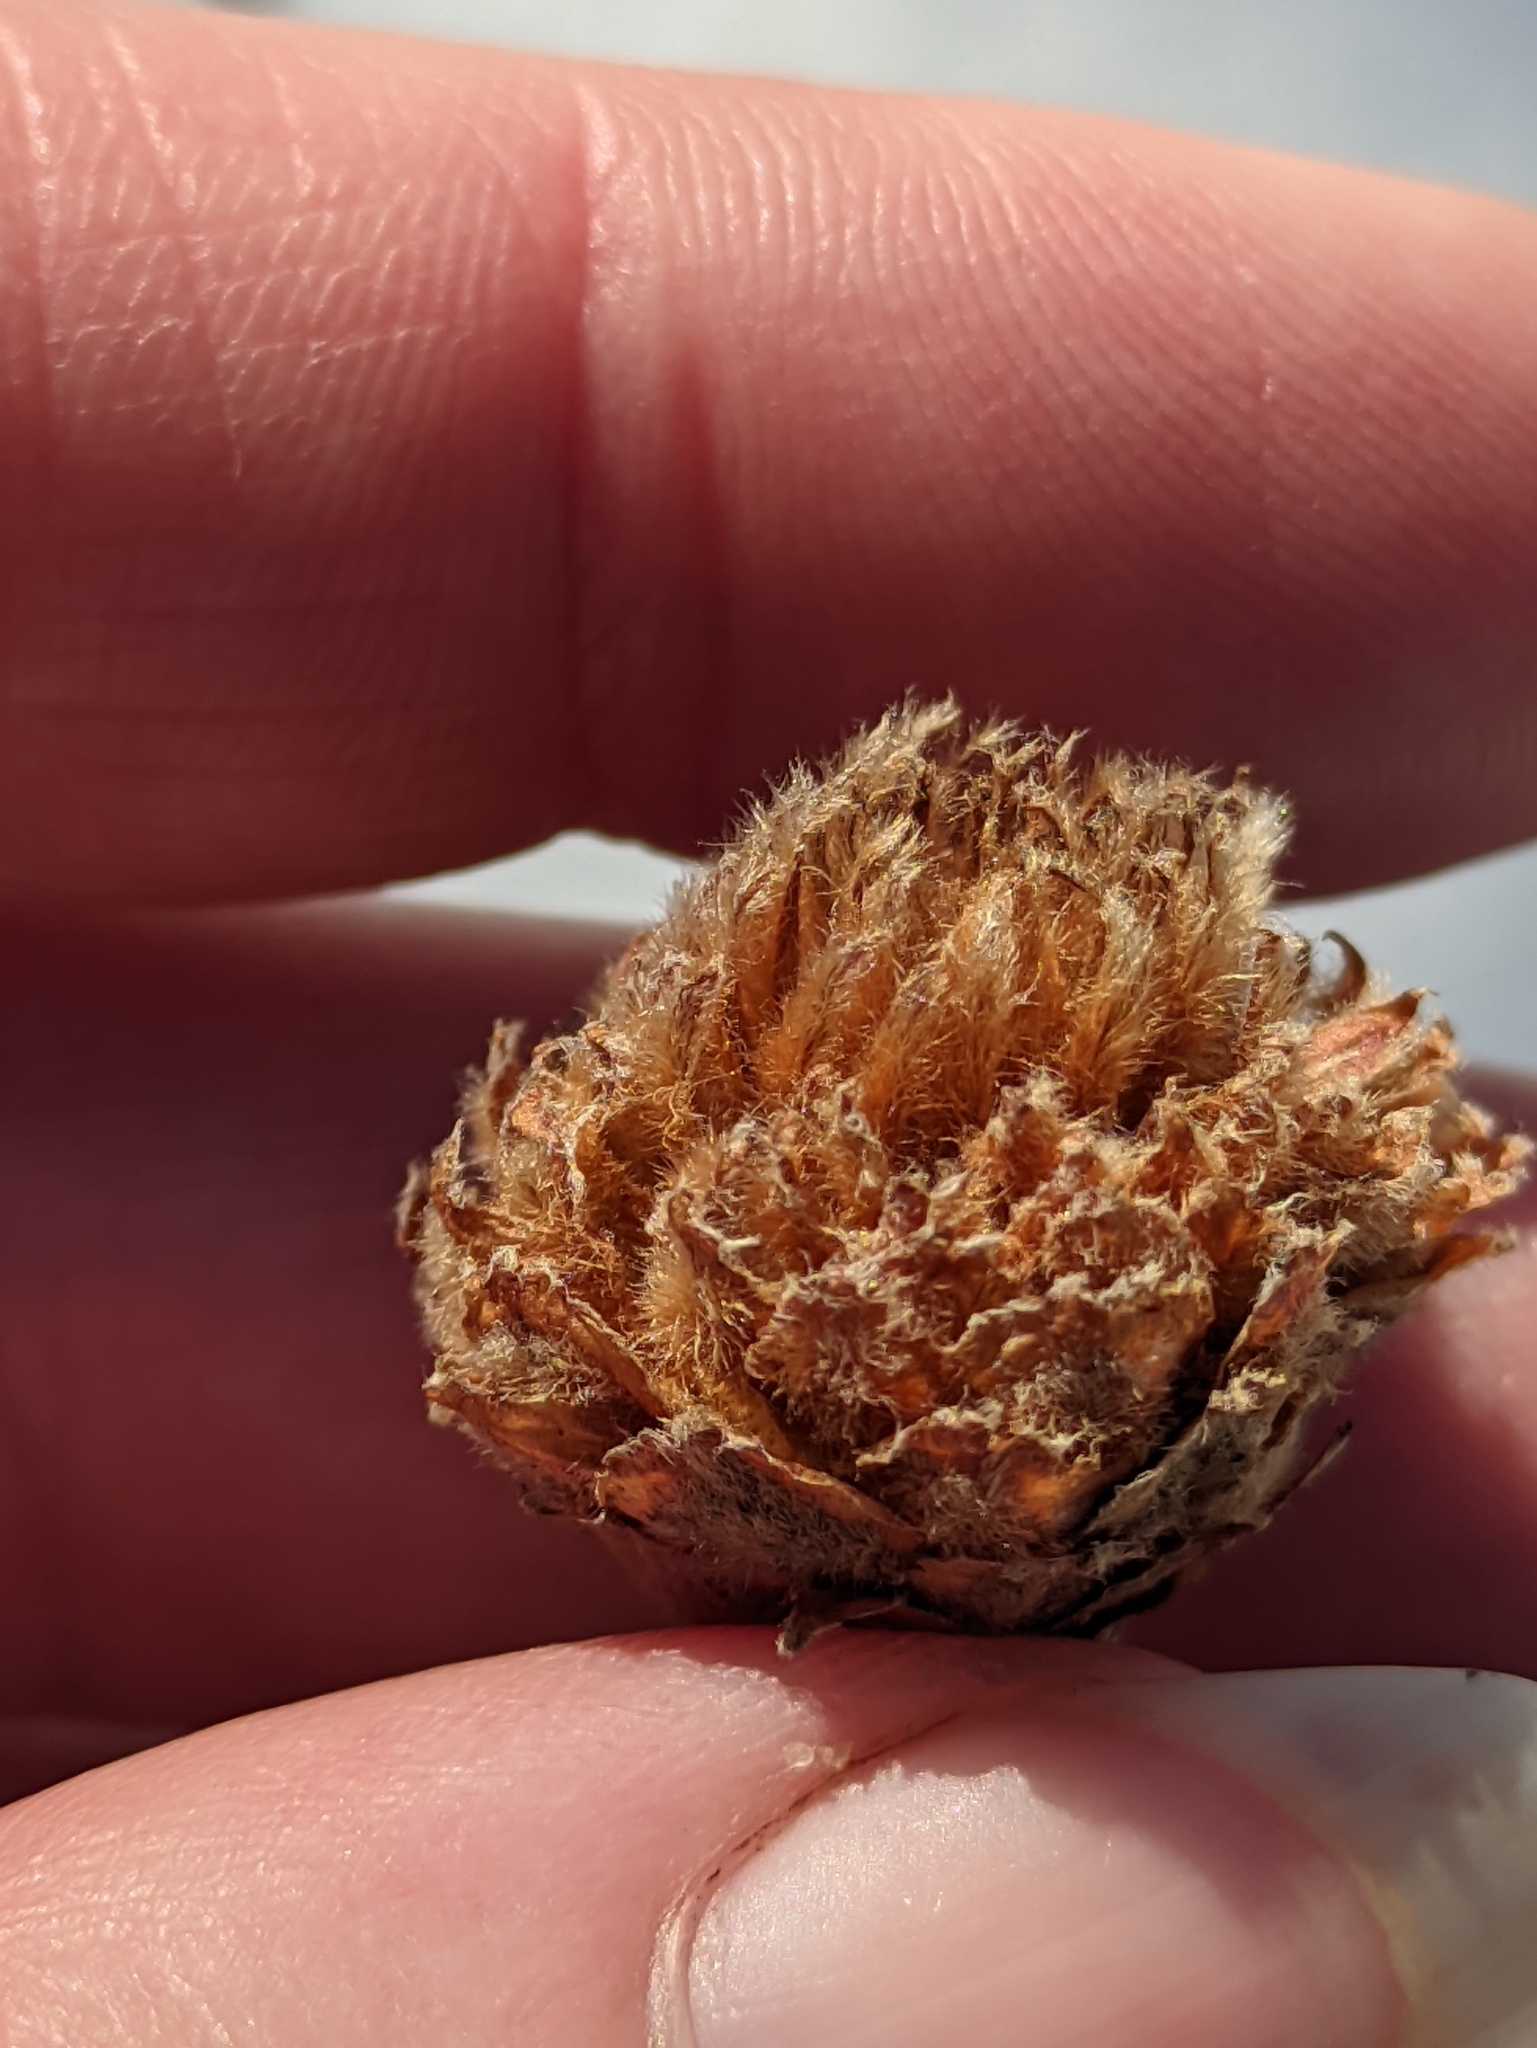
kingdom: Animalia
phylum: Arthropoda
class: Insecta
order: Hymenoptera
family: Cynipidae
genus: Andricus
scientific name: Andricus foecundatrix
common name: Artichoke gall
